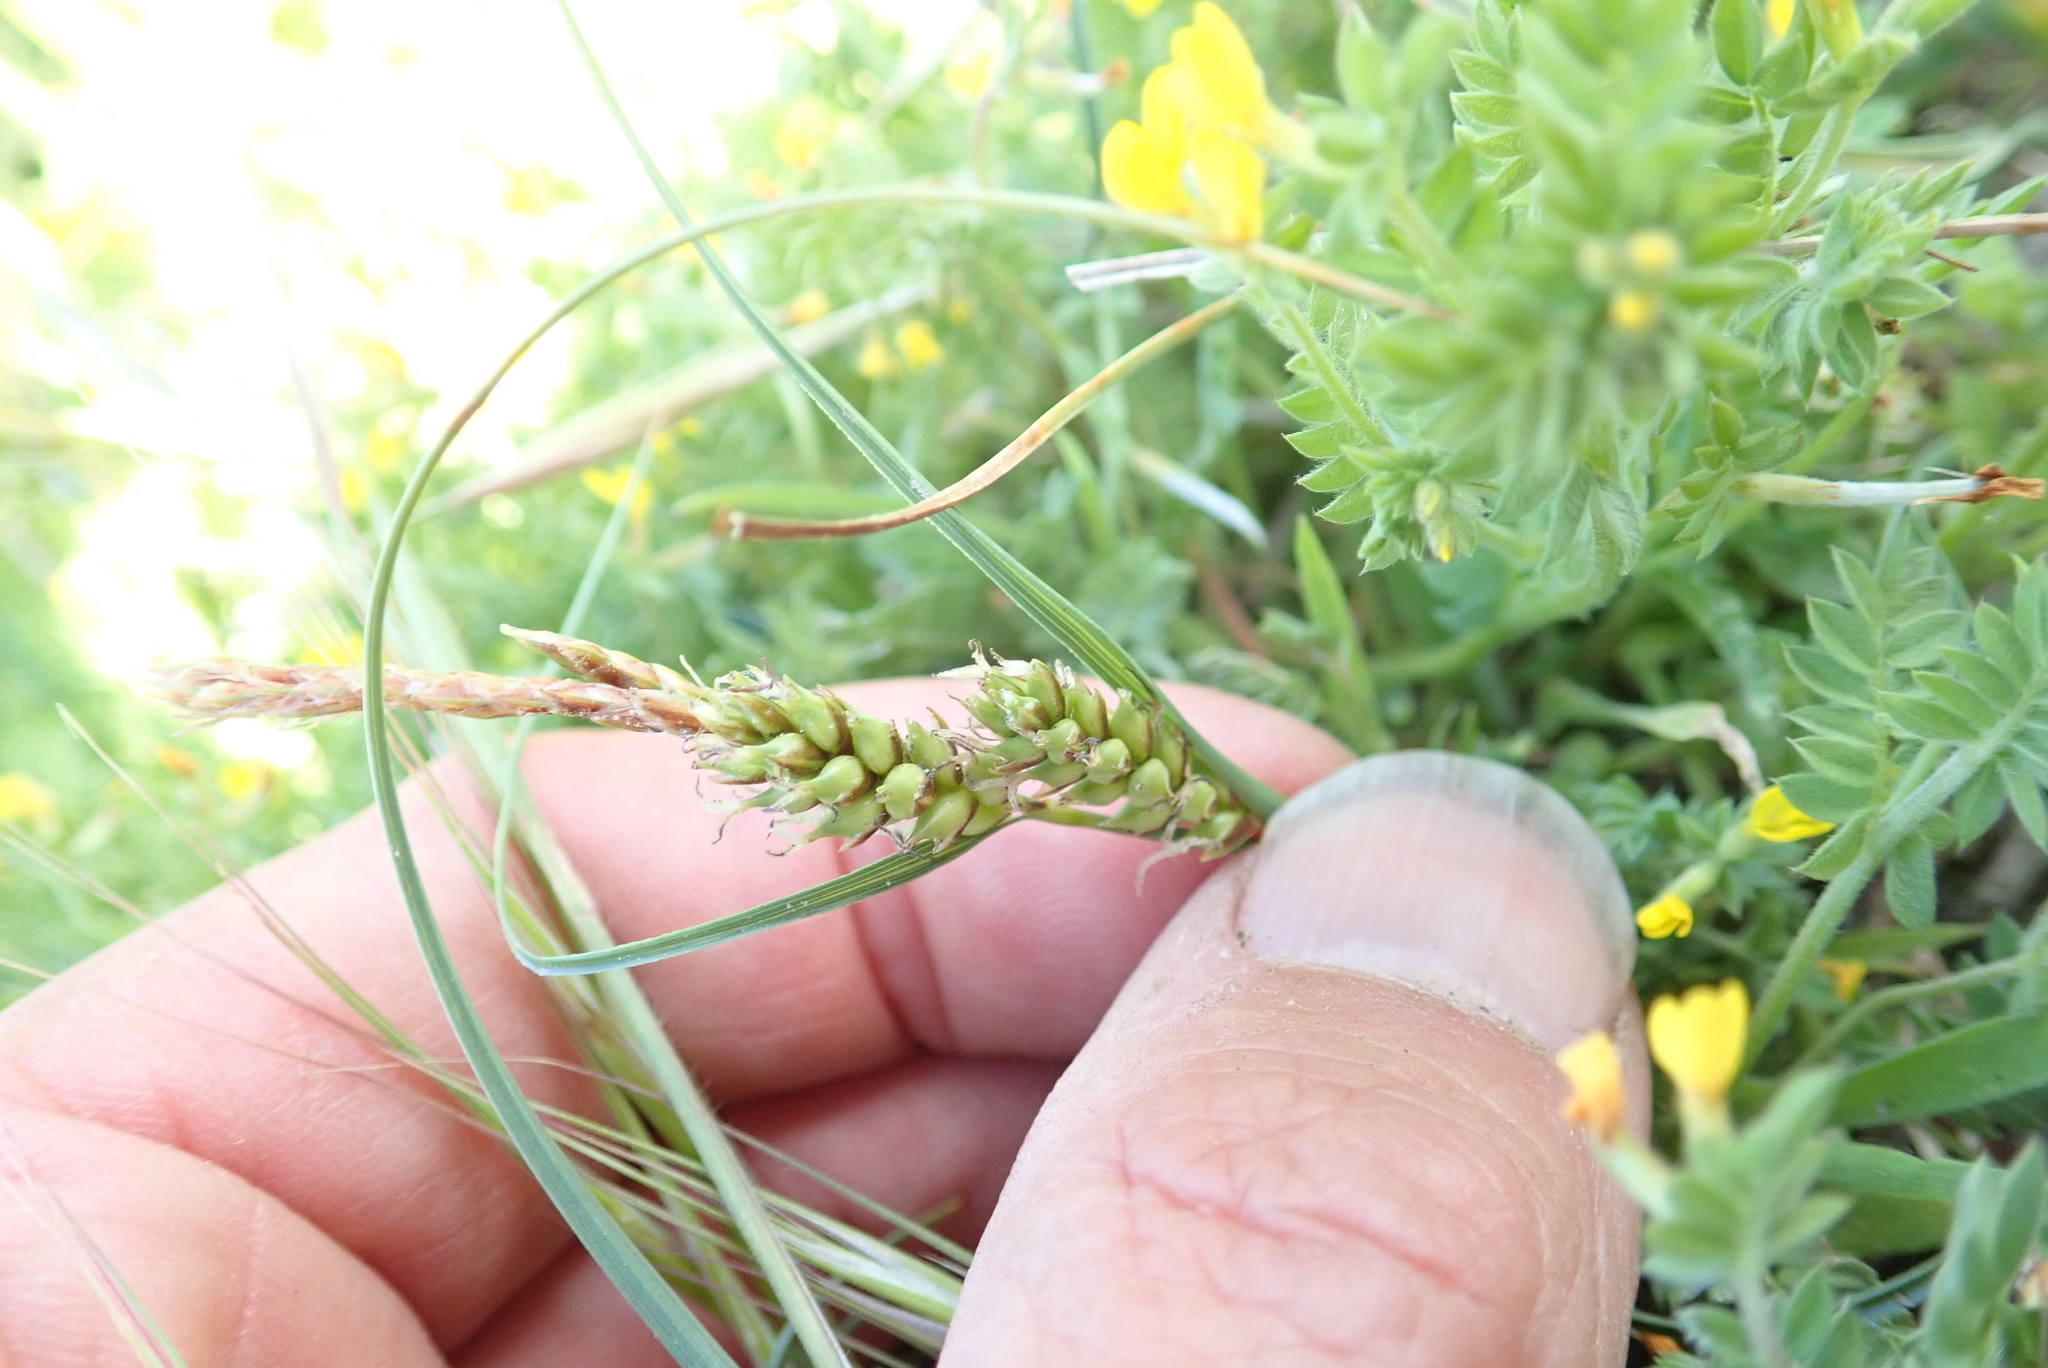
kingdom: Plantae
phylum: Tracheophyta
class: Liliopsida
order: Poales
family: Cyperaceae
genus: Carex
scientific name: Carex pumila
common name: Dwarf sedge
